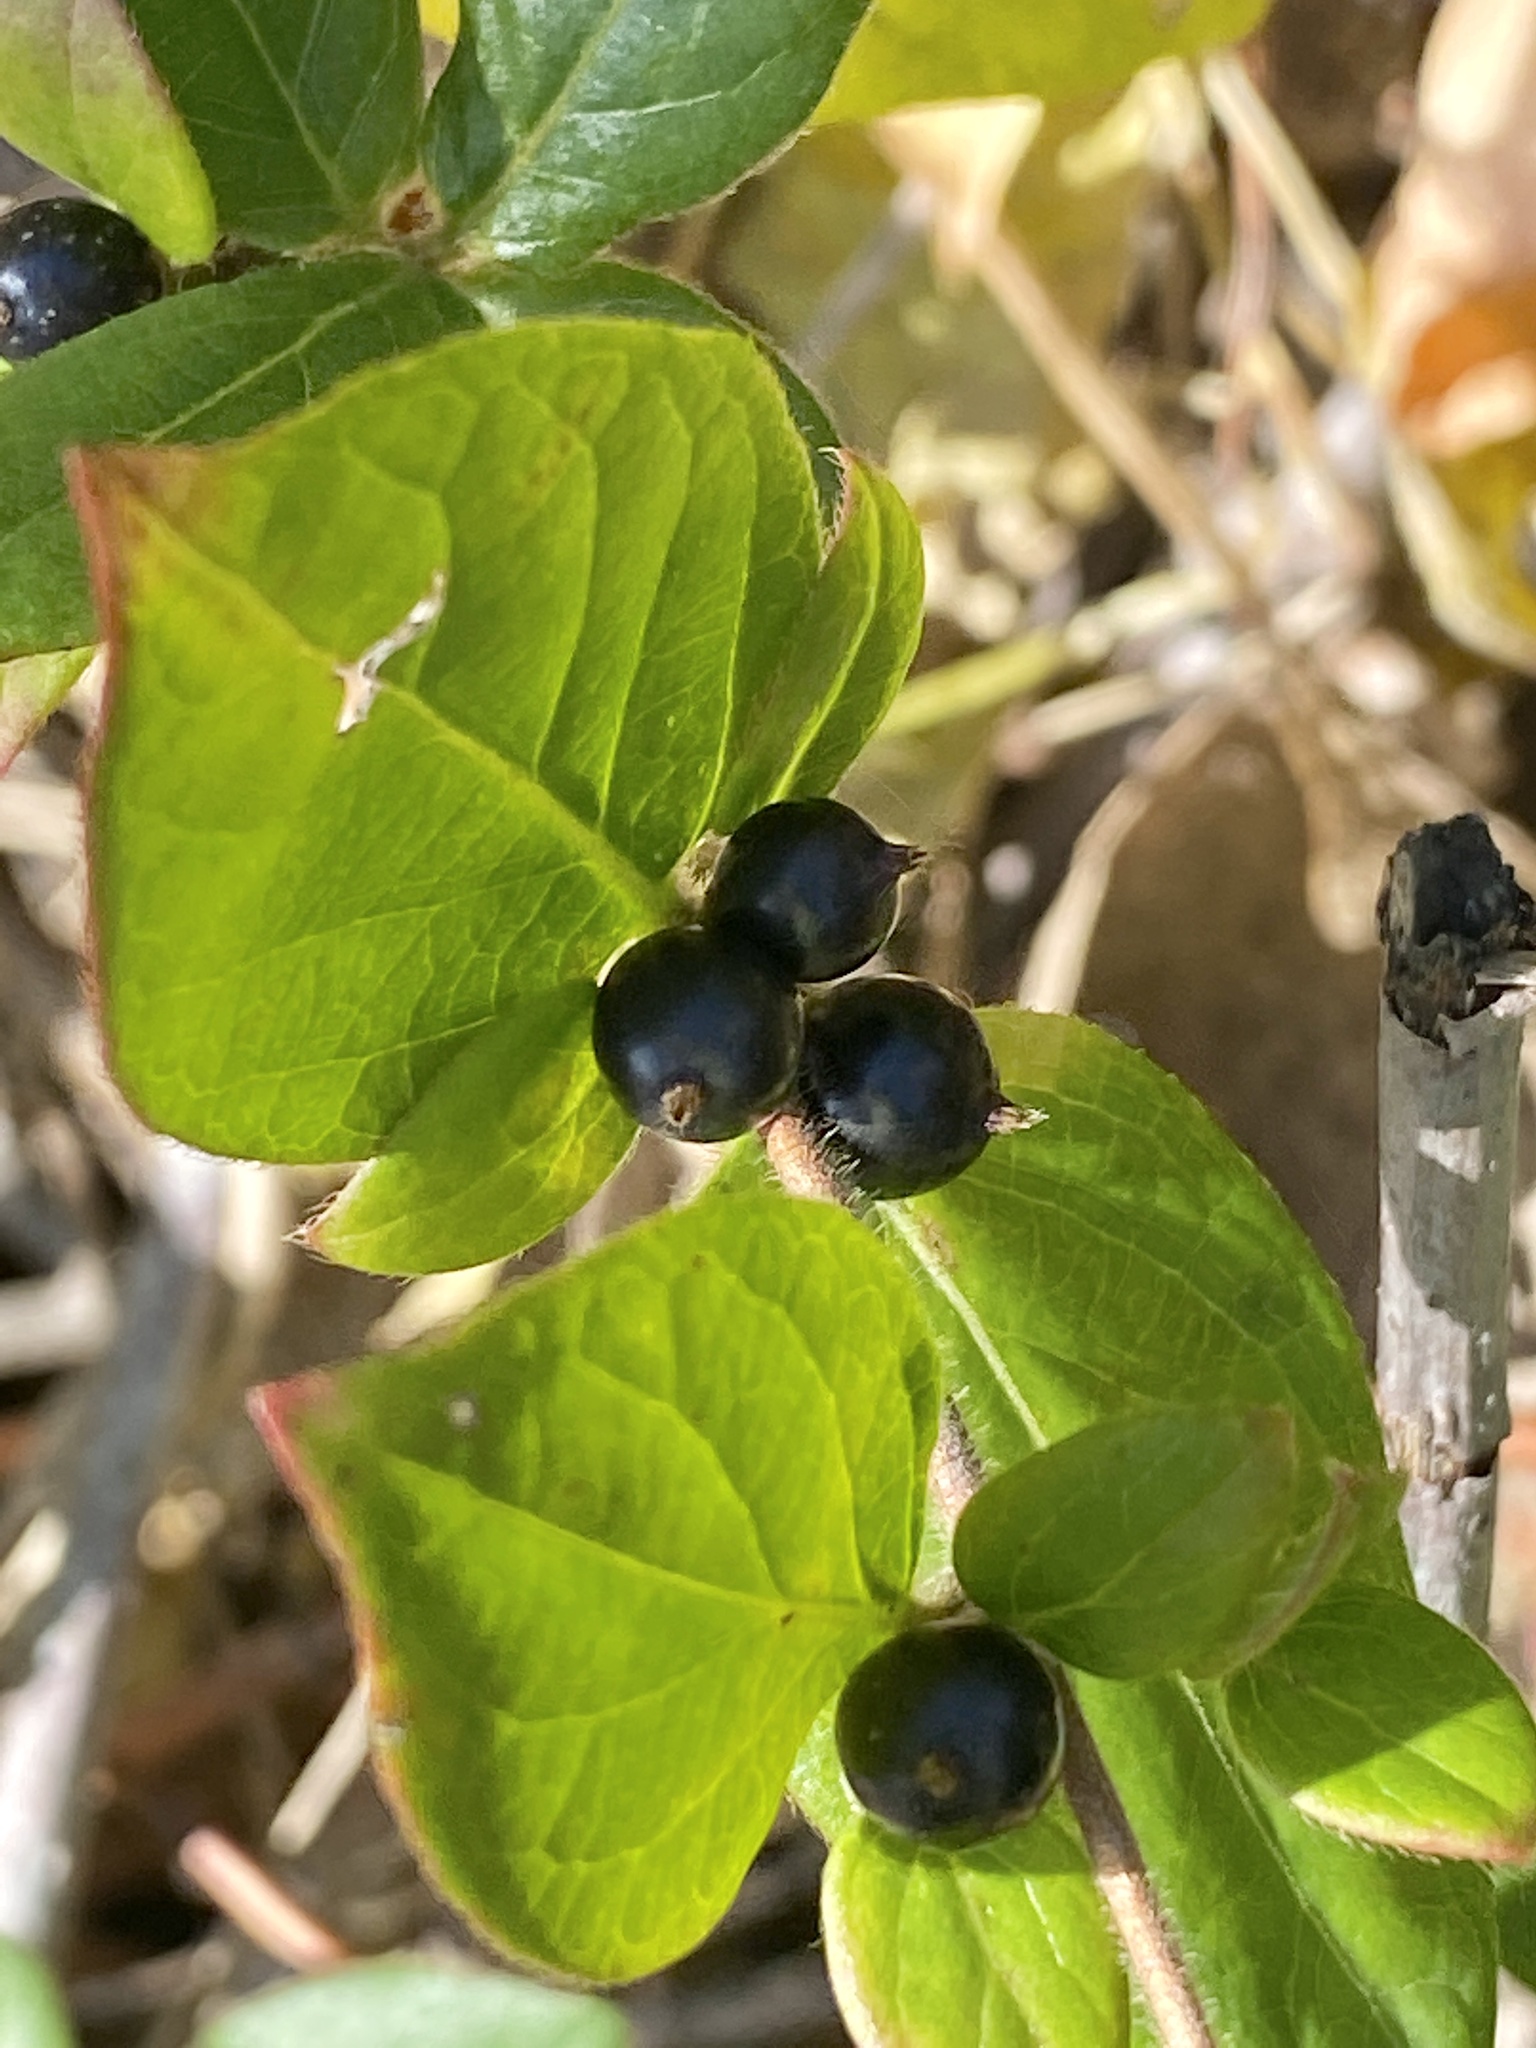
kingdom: Plantae
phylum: Tracheophyta
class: Magnoliopsida
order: Dipsacales
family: Caprifoliaceae
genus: Lonicera
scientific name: Lonicera japonica
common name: Japanese honeysuckle
